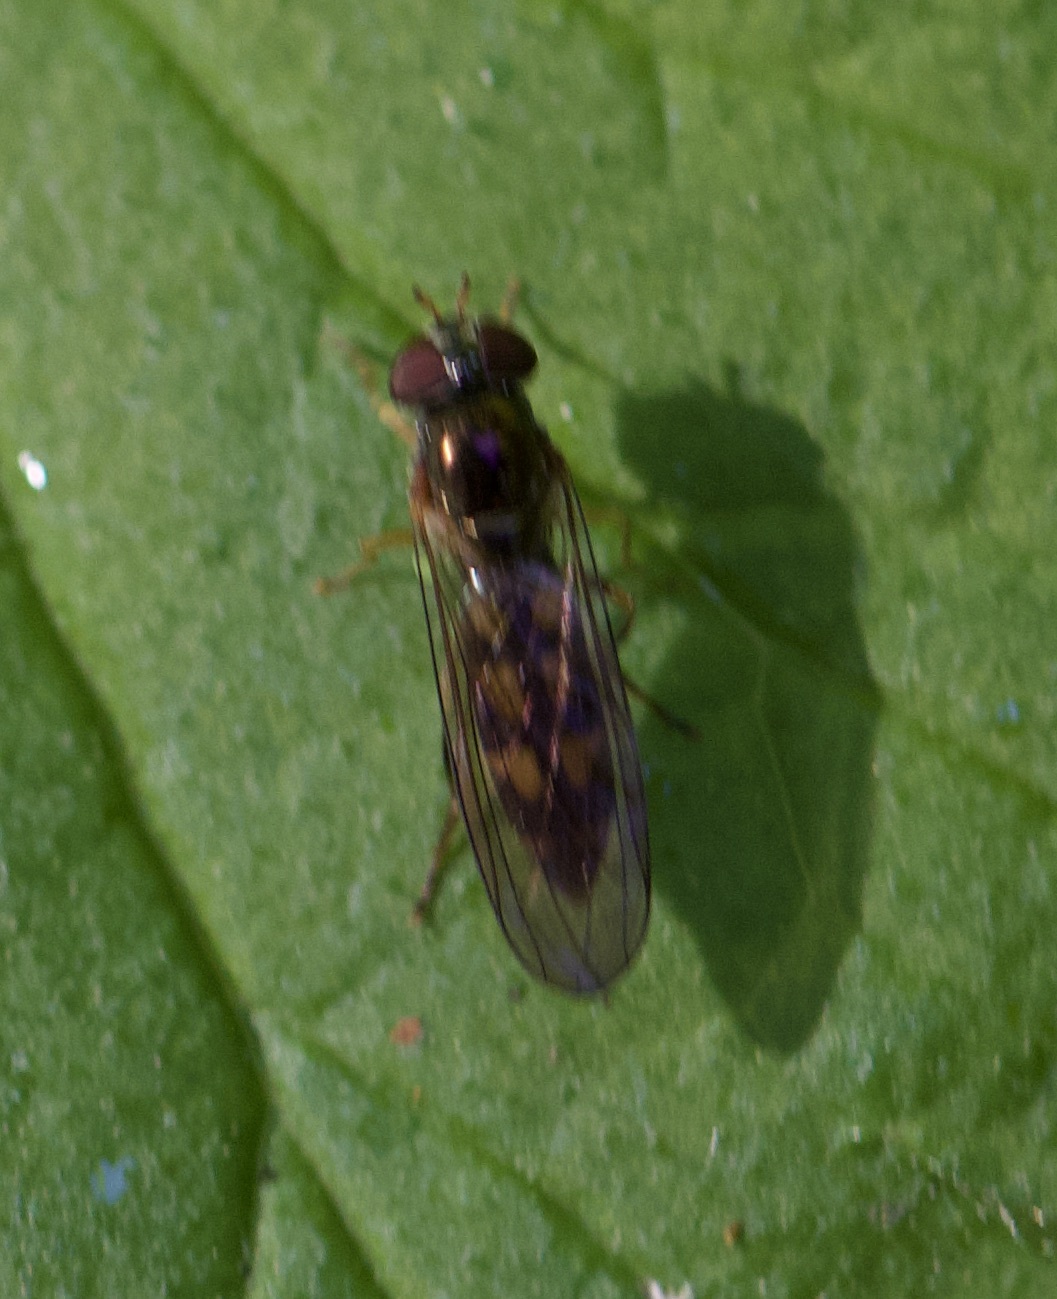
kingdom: Animalia
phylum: Arthropoda
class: Insecta
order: Diptera
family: Syrphidae
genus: Melanostoma
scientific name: Melanostoma scalare
